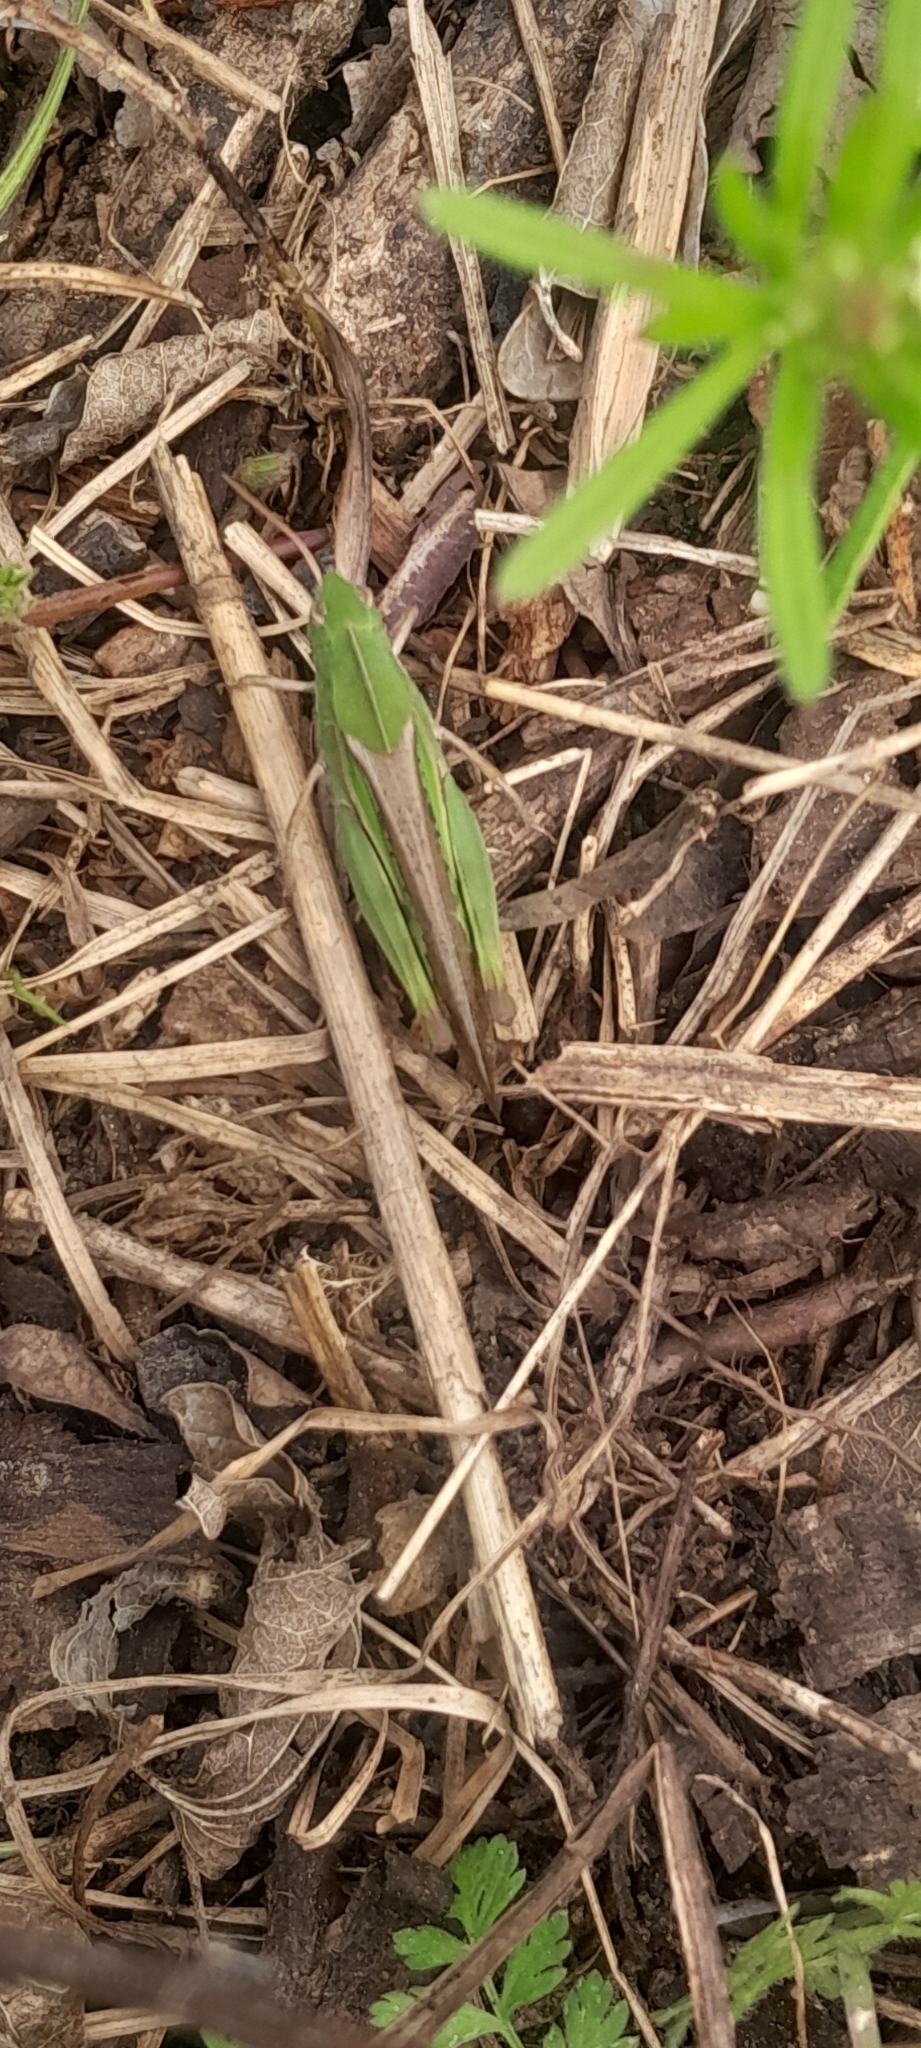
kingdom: Animalia
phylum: Arthropoda
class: Insecta
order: Orthoptera
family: Acrididae
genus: Chortophaga
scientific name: Chortophaga viridifasciata
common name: Green-striped grasshopper
